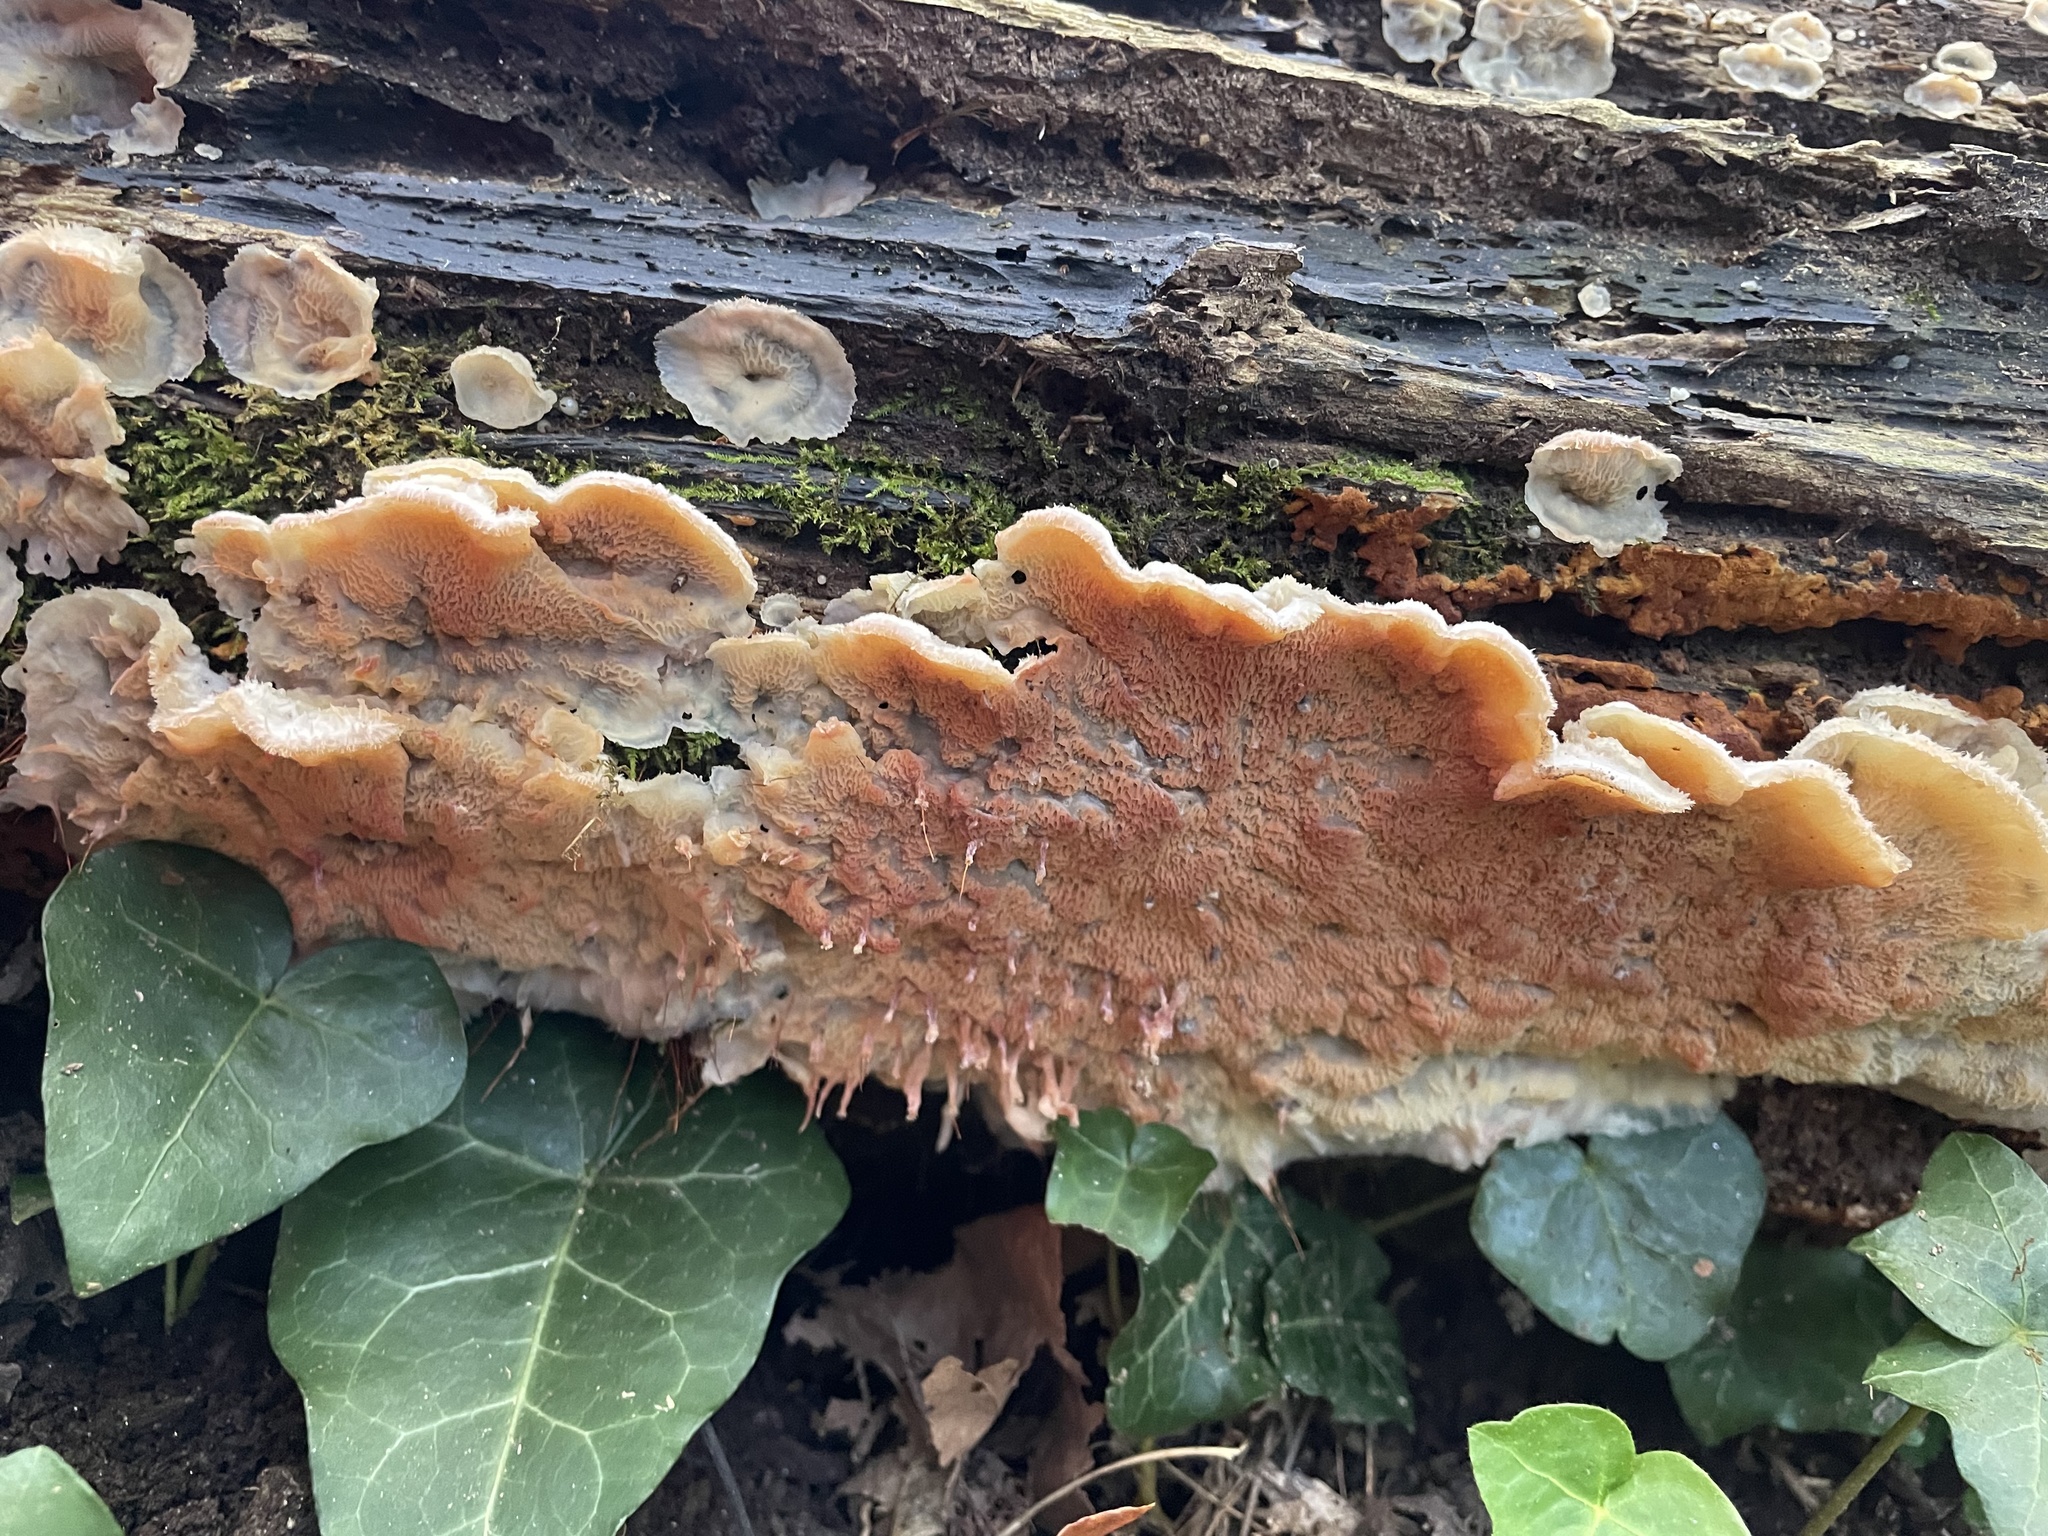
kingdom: Fungi
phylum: Basidiomycota
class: Agaricomycetes
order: Polyporales
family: Meruliaceae
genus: Phlebia
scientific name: Phlebia tremellosa
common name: Jelly rot
